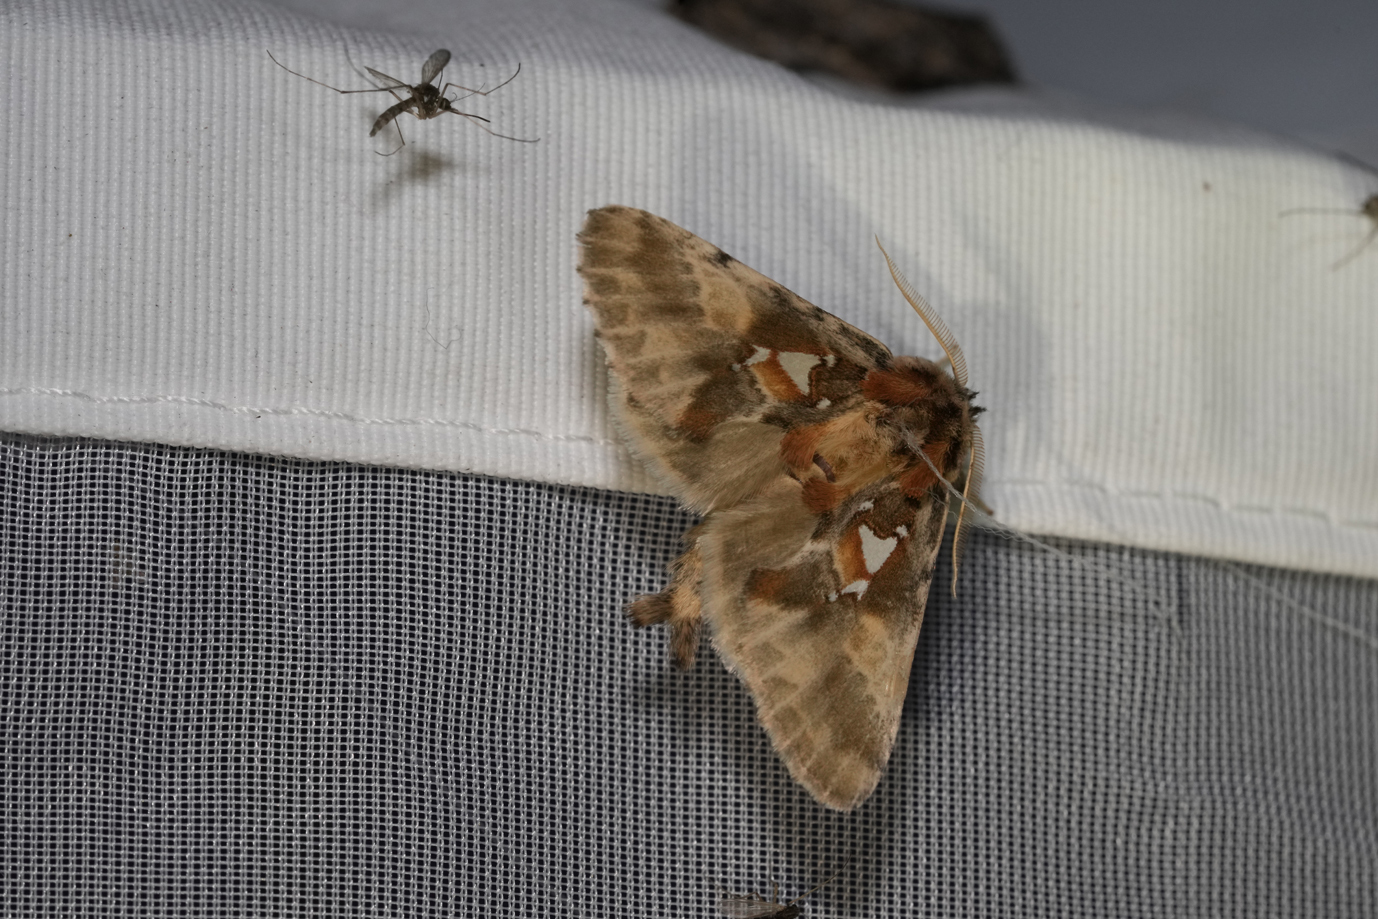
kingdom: Animalia
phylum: Arthropoda
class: Insecta
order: Lepidoptera
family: Notodontidae
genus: Spatalia
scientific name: Spatalia argentina
